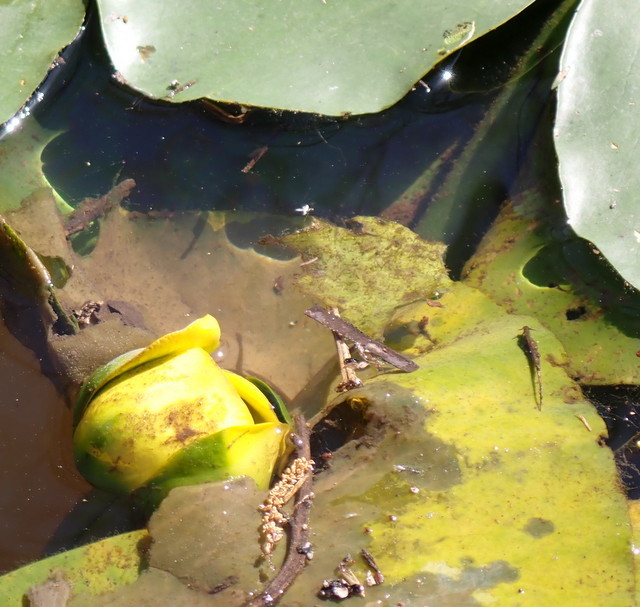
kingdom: Plantae
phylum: Tracheophyta
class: Magnoliopsida
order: Nymphaeales
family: Nymphaeaceae
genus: Nuphar
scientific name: Nuphar advena
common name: Spatter-dock
